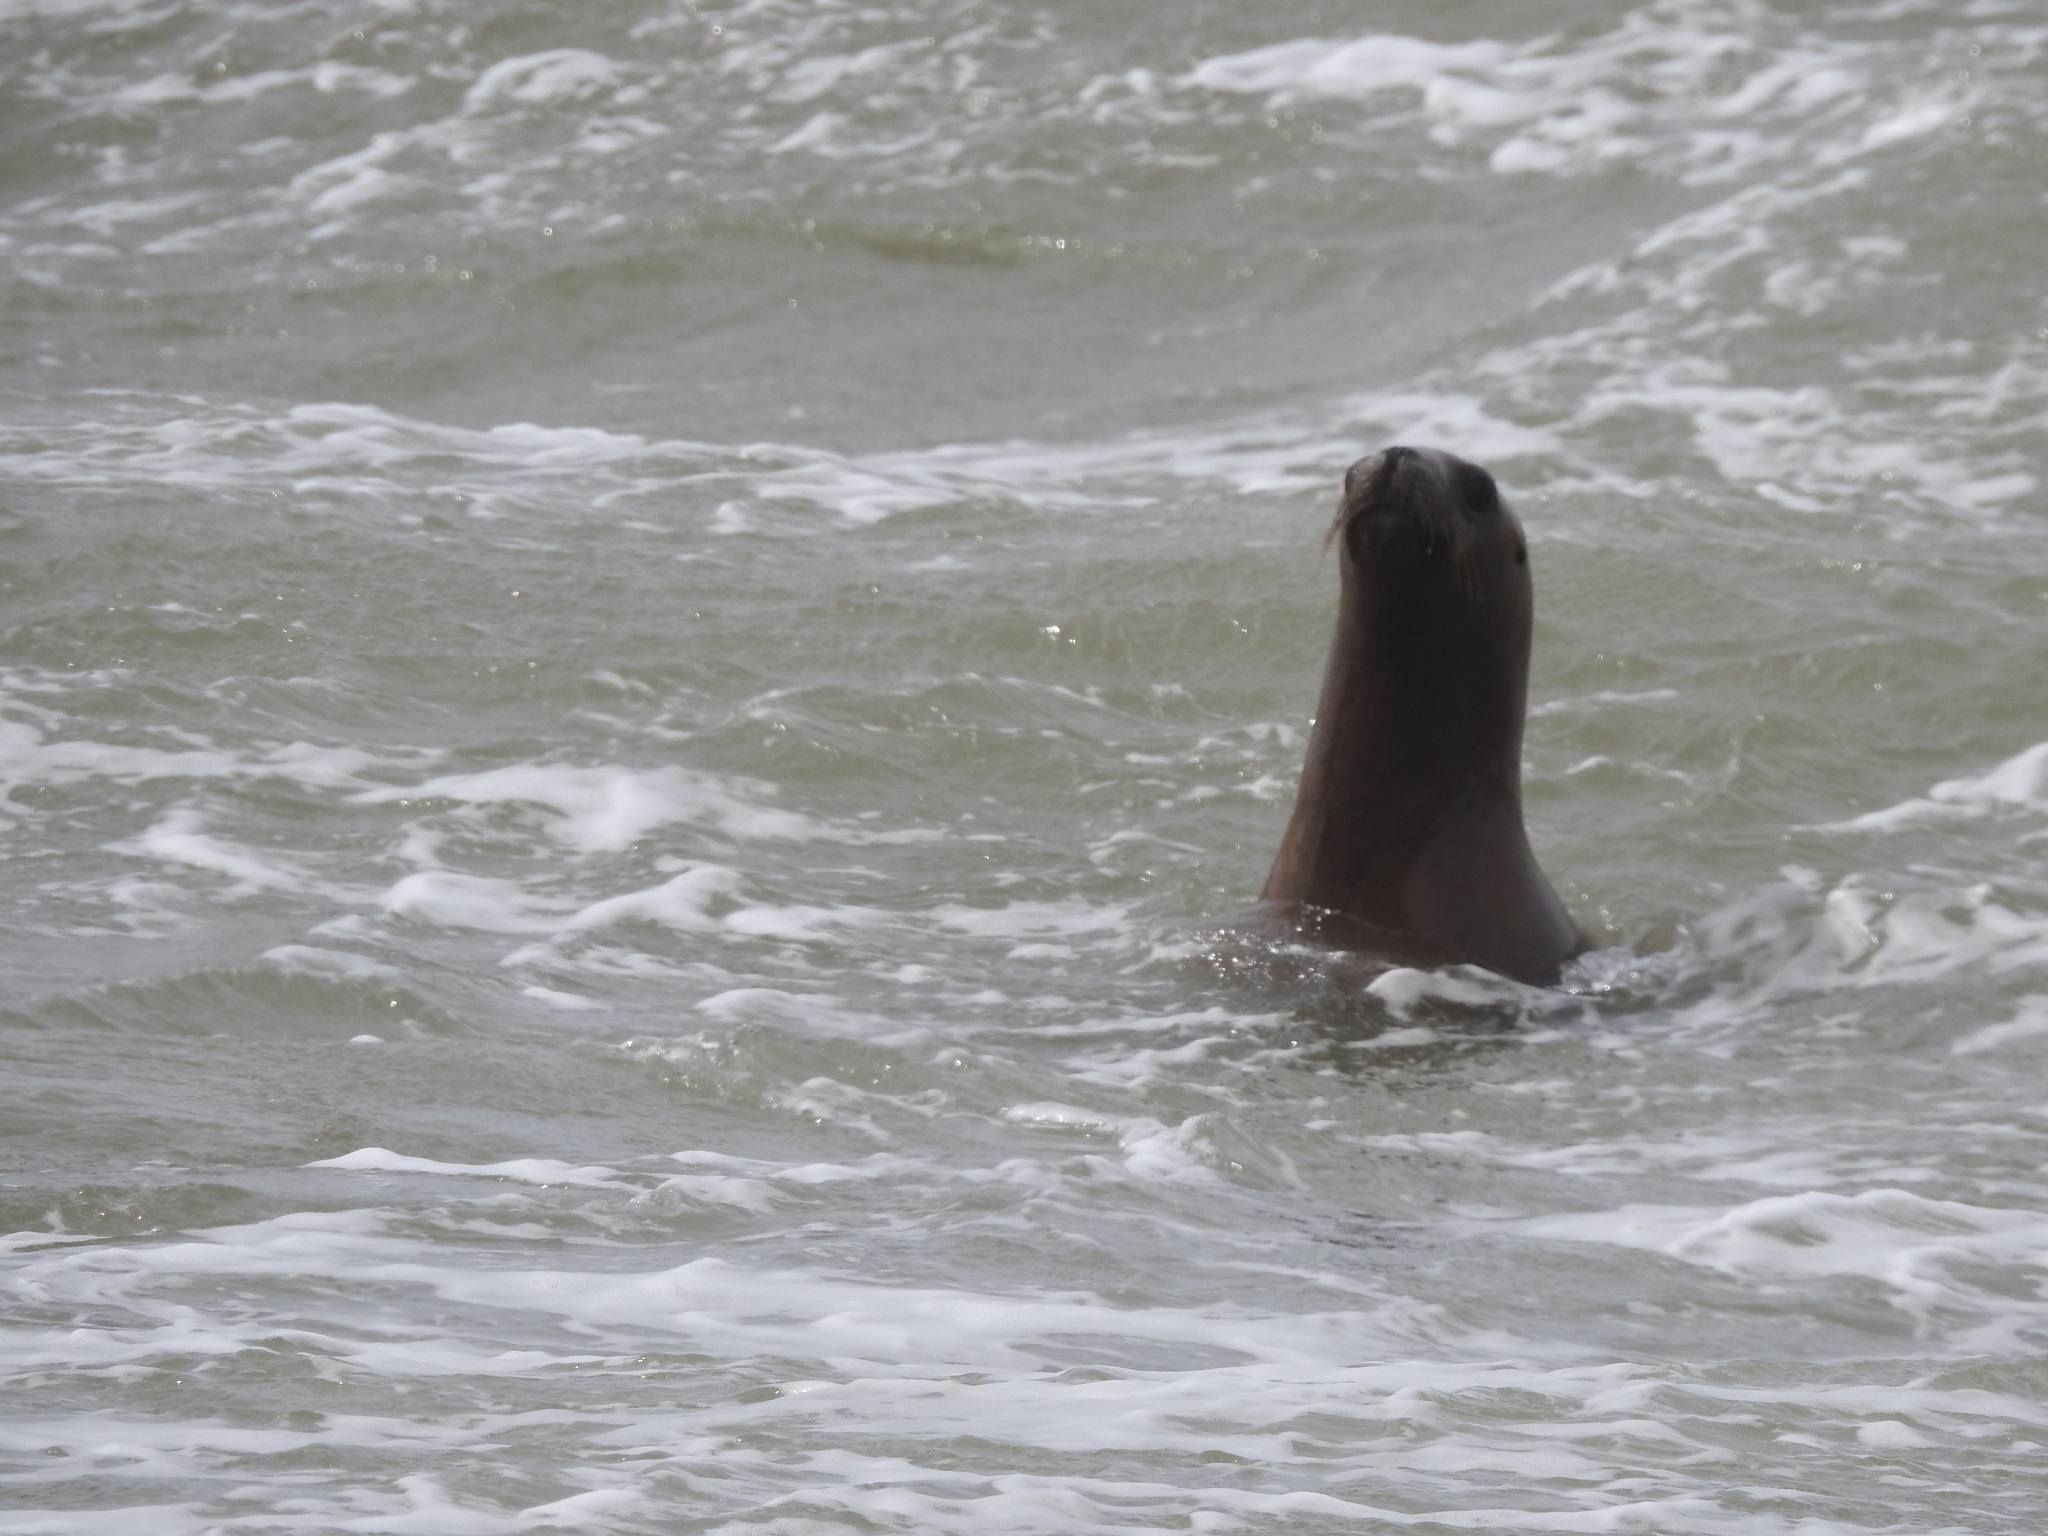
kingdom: Animalia
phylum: Chordata
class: Mammalia
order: Carnivora
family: Otariidae
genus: Otaria
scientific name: Otaria byronia
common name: South american sea lion
